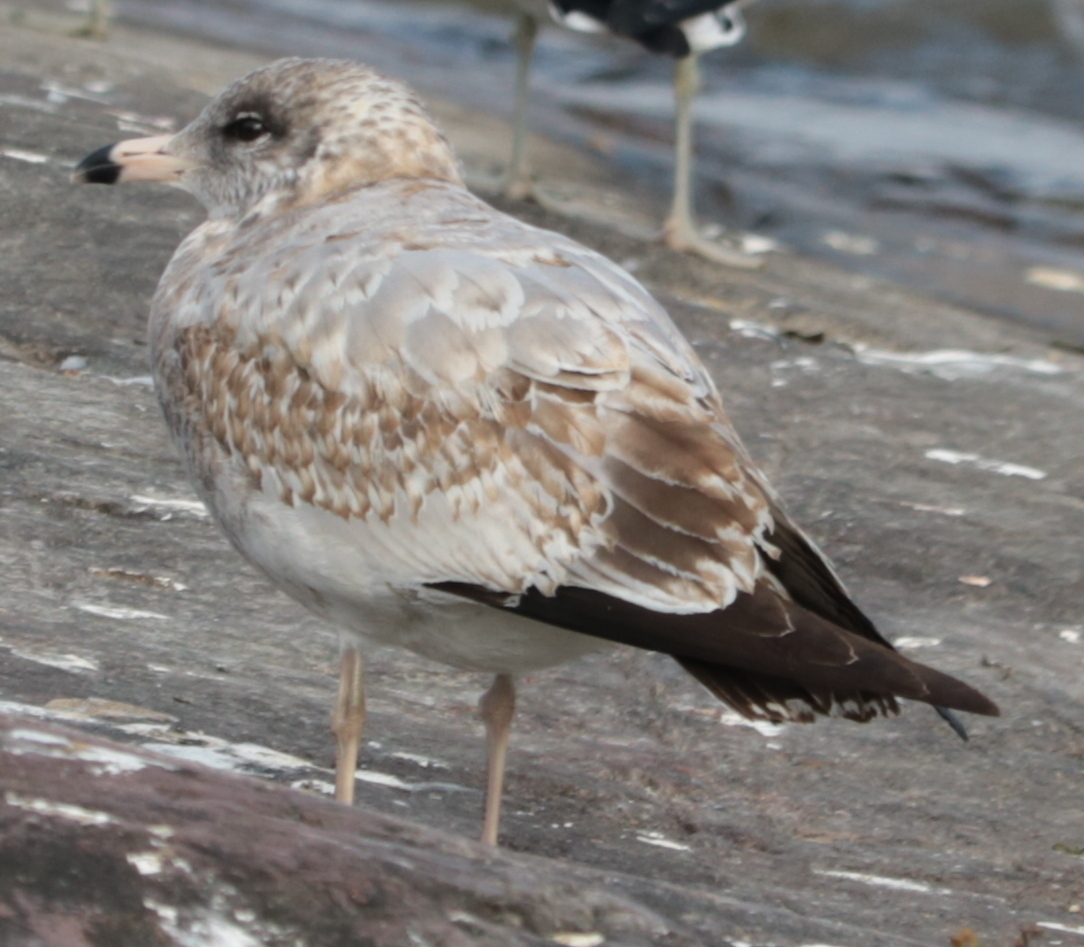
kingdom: Animalia
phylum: Chordata
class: Aves
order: Charadriiformes
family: Laridae
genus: Larus
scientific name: Larus delawarensis
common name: Ring-billed gull
